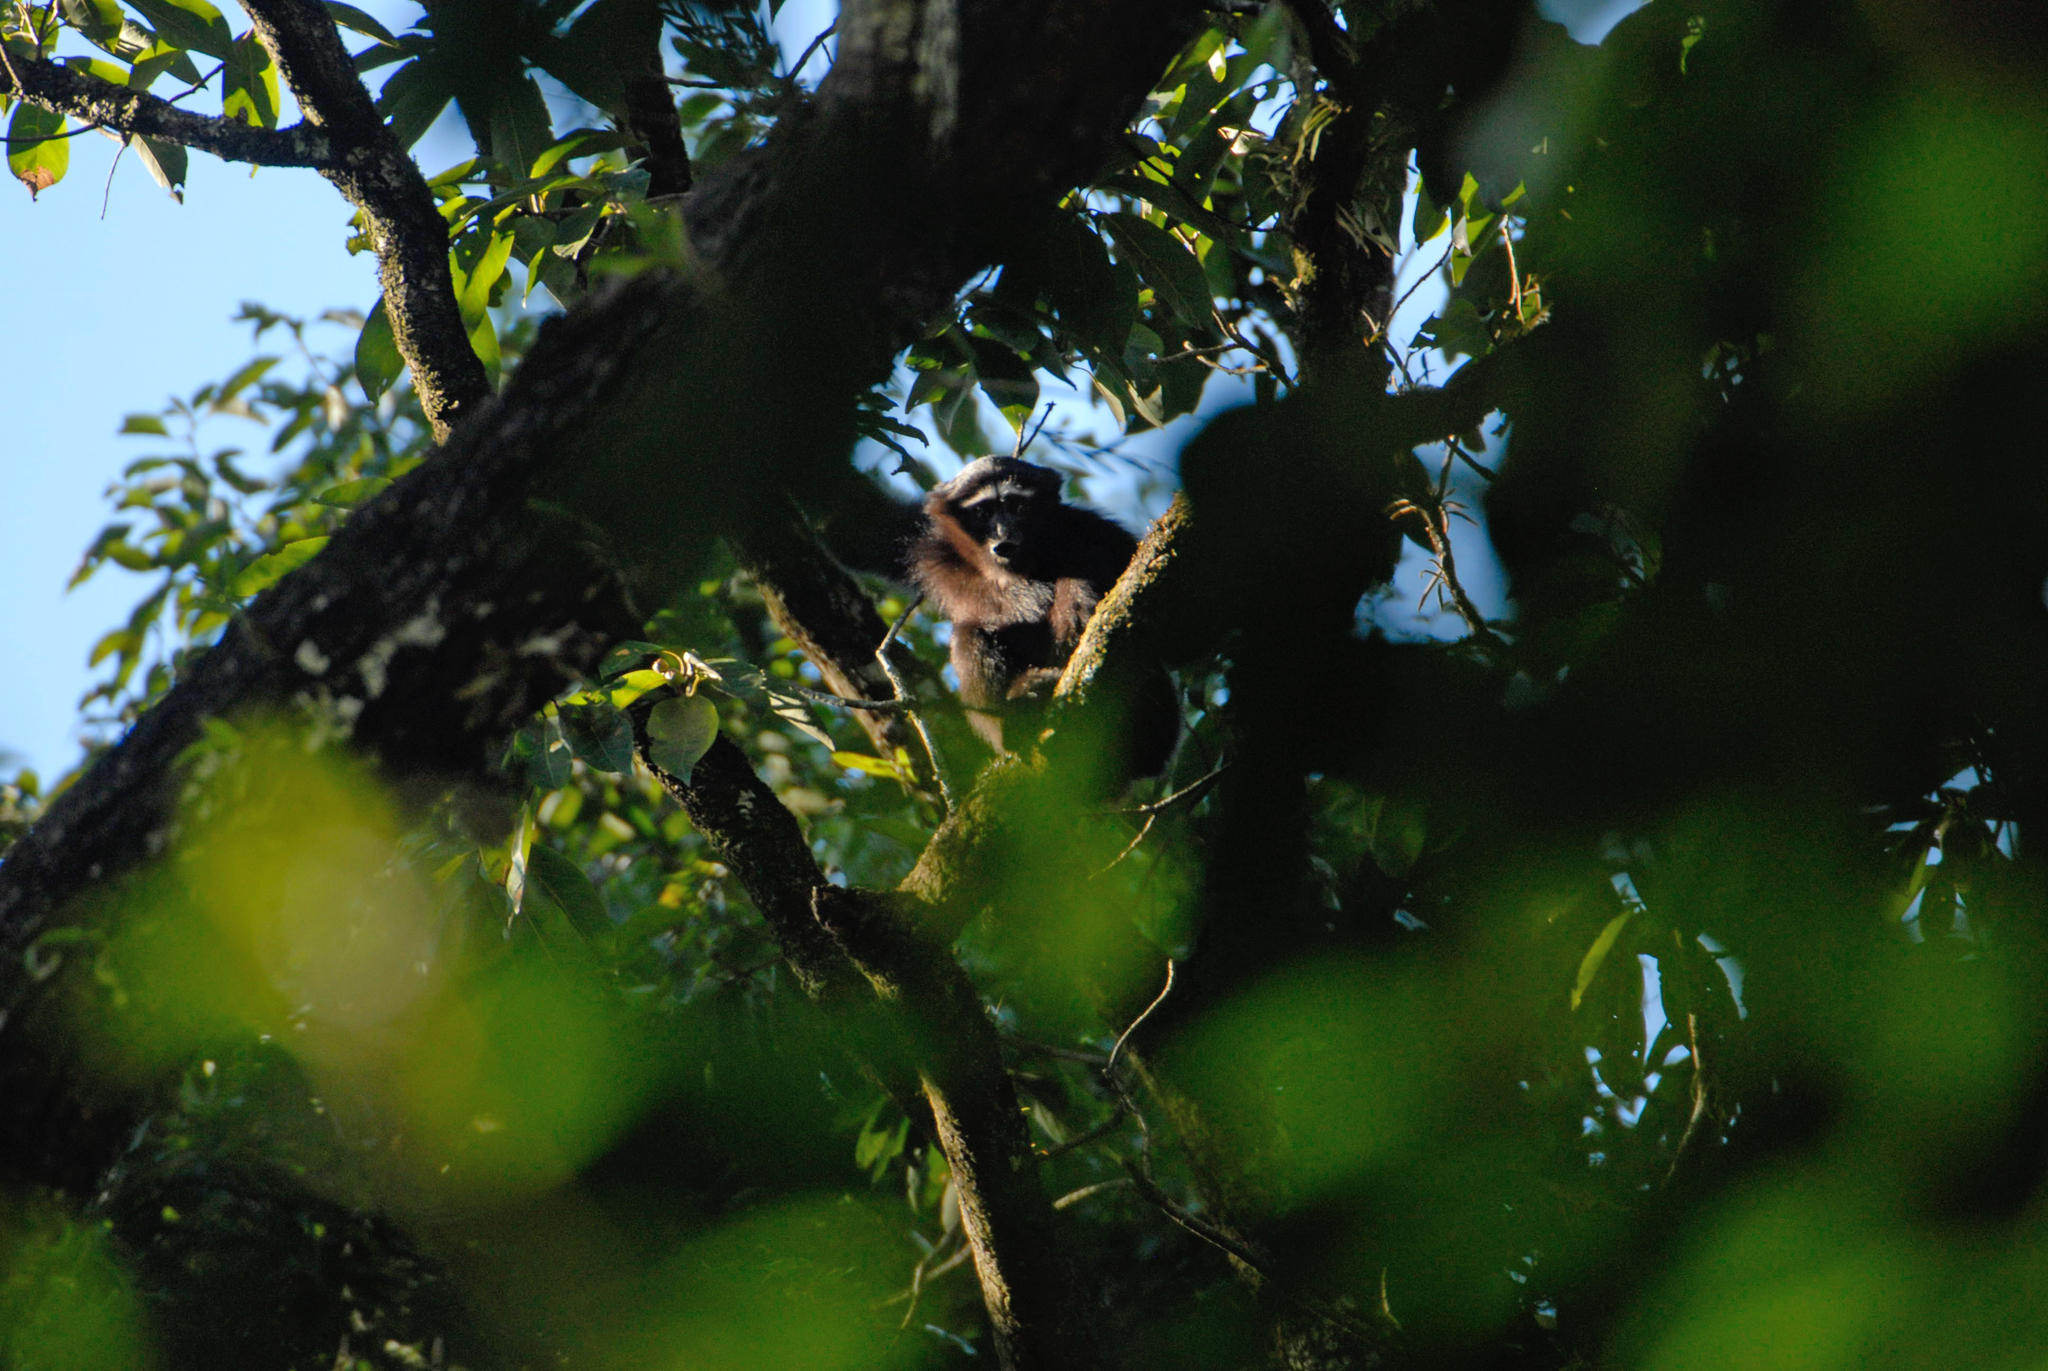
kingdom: Animalia
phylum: Chordata
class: Mammalia
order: Primates
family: Hylobatidae
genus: Hoolock
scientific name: Hoolock hoolock
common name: Western hoolock gibbon
